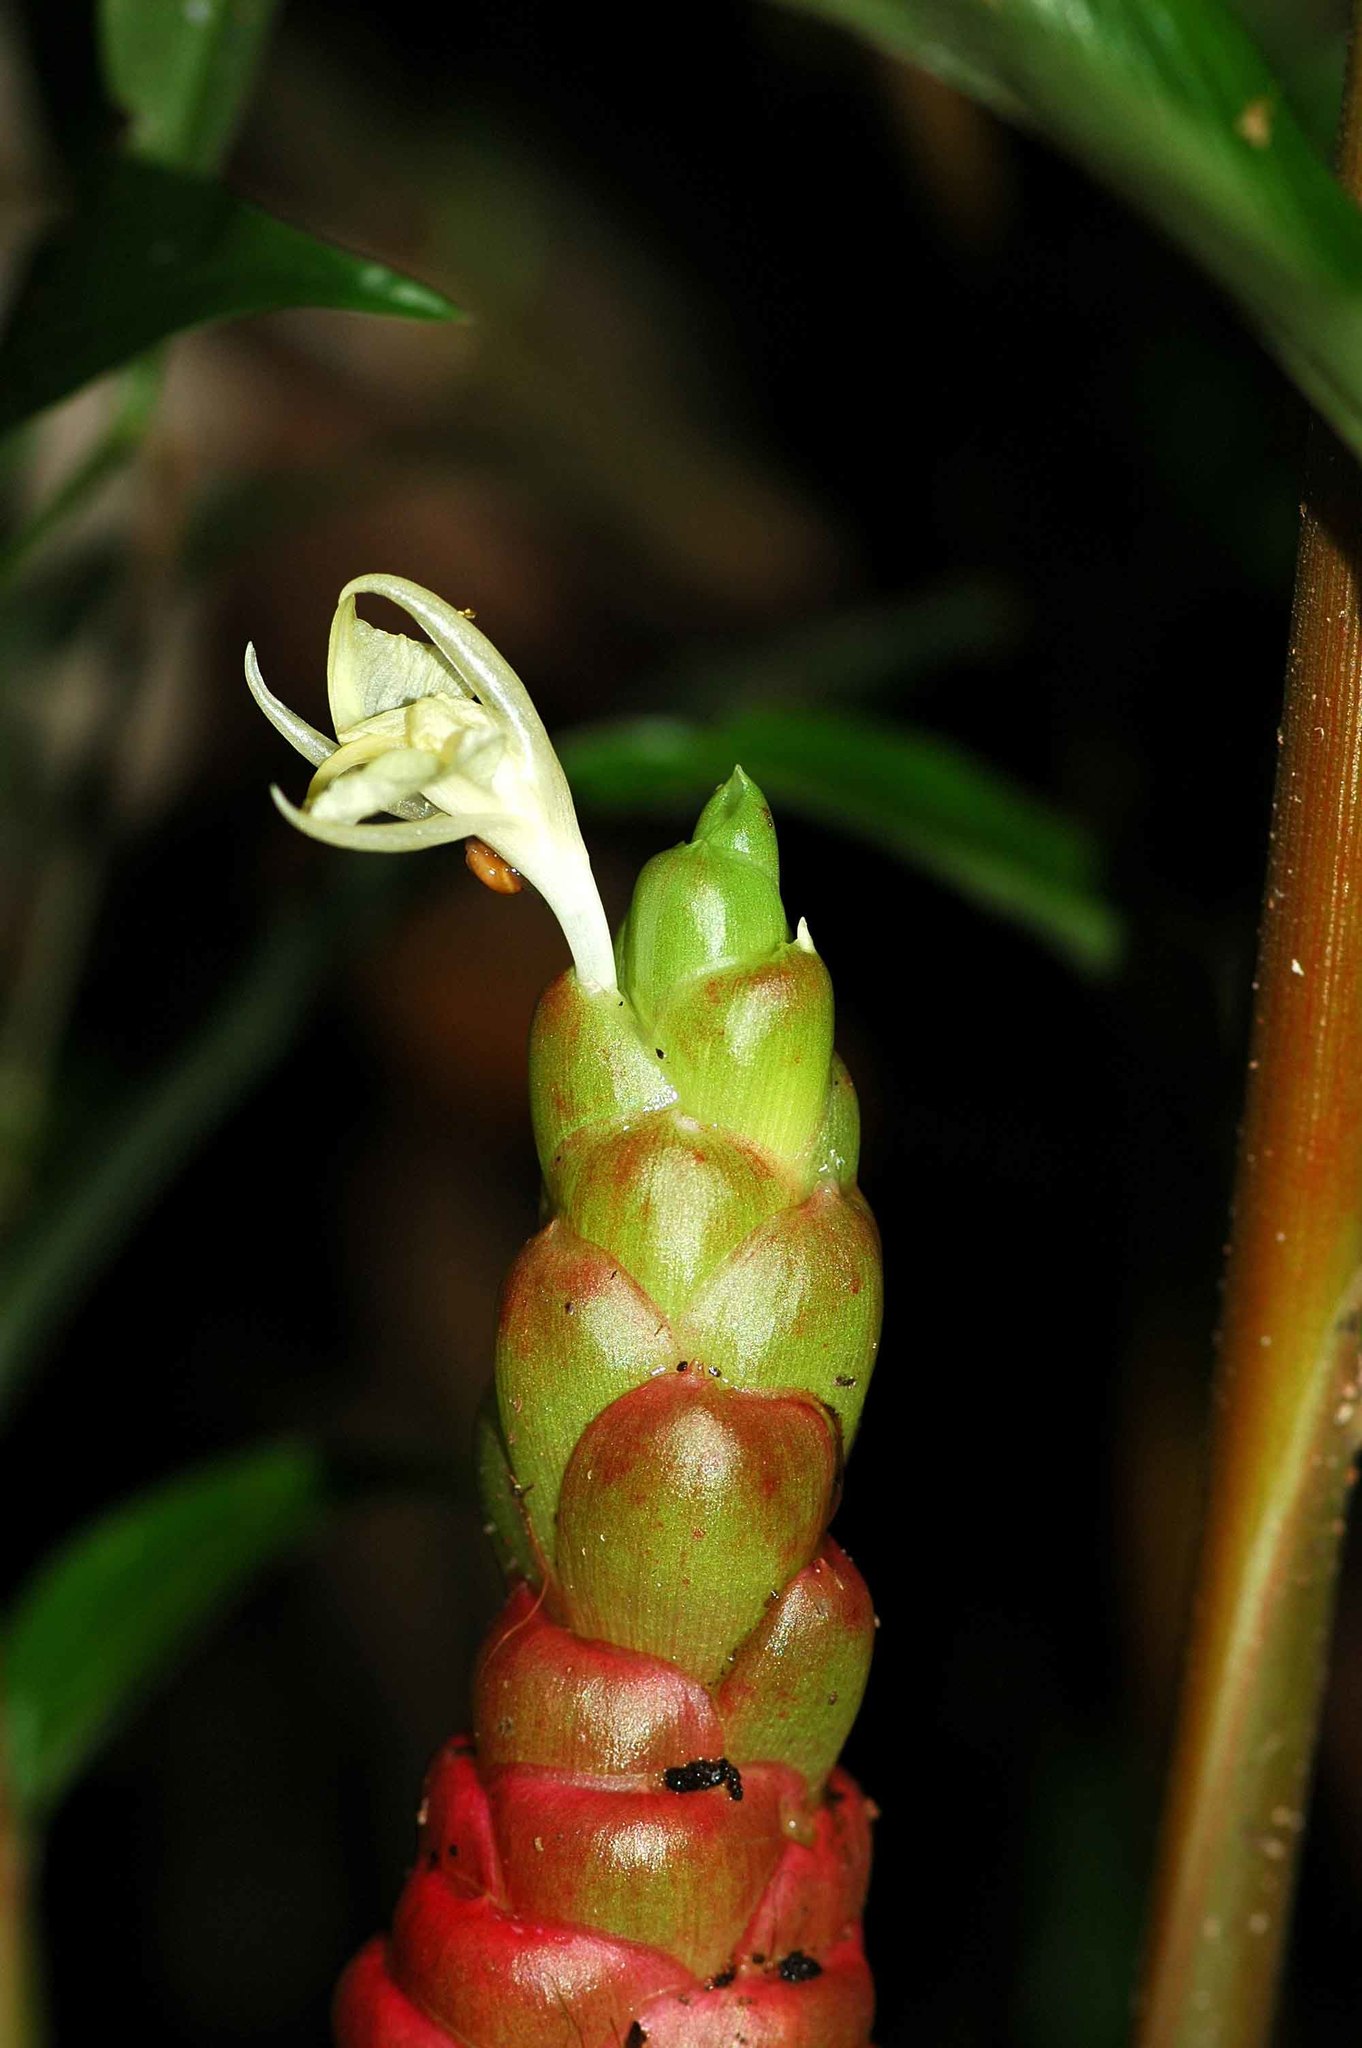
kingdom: Plantae
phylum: Tracheophyta
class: Liliopsida
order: Zingiberales
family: Zingiberaceae
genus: Zingiber
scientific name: Zingiber zerumbet
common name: Bitter ginger
